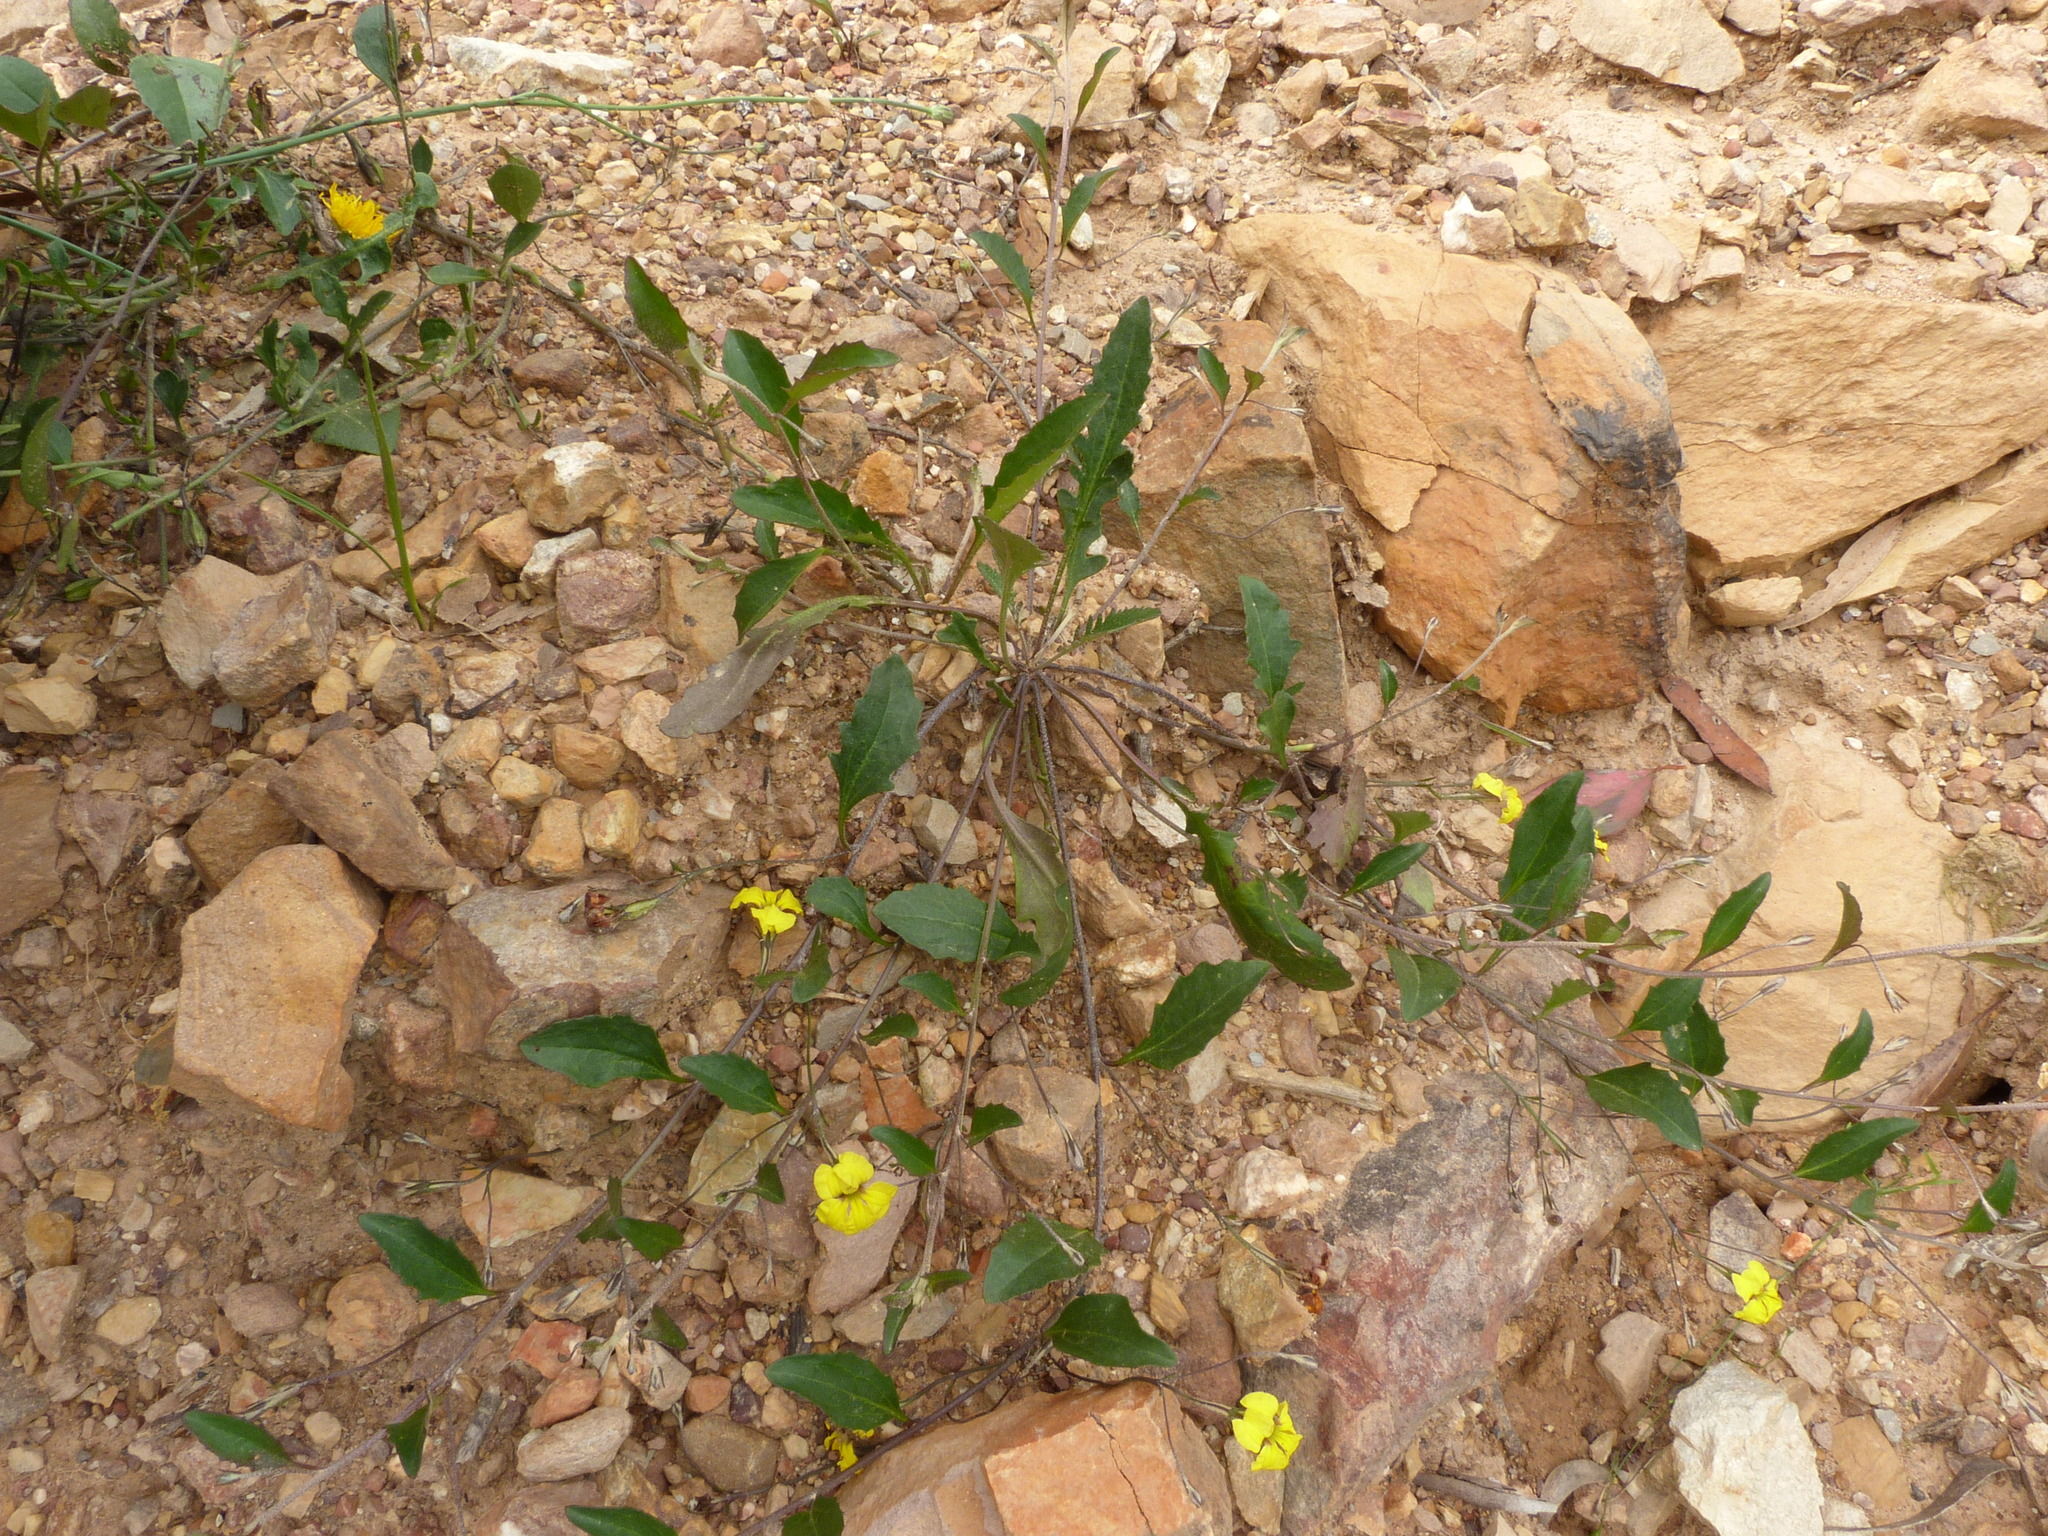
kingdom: Plantae
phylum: Tracheophyta
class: Magnoliopsida
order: Asterales
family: Goodeniaceae
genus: Goodenia
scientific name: Goodenia hederacea
